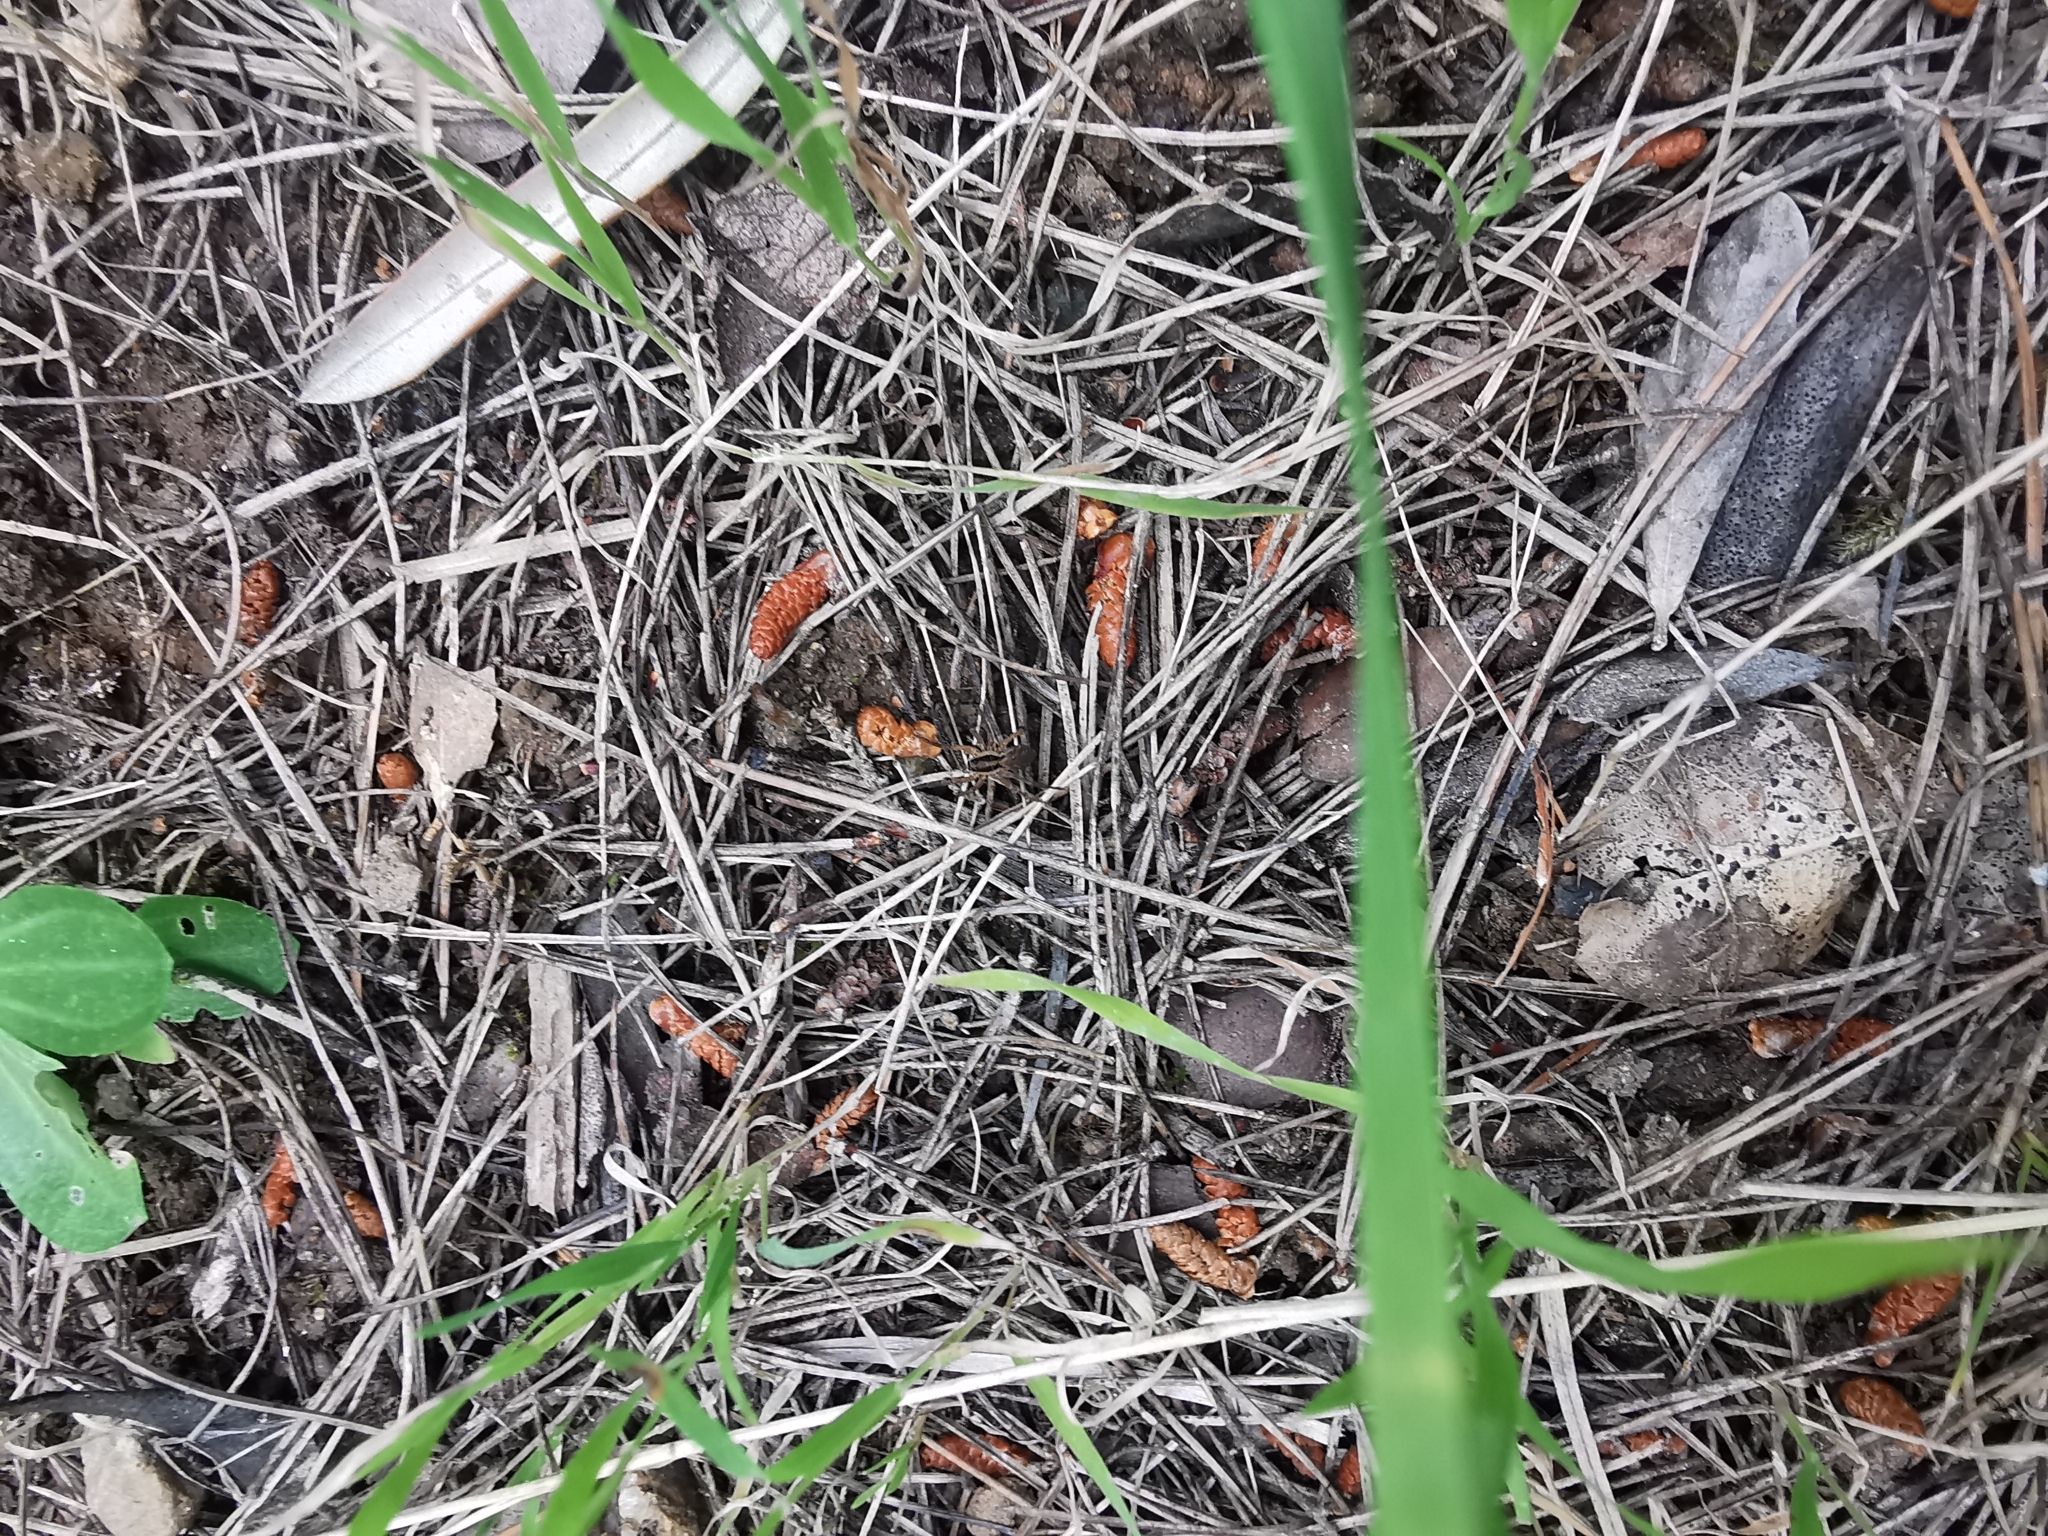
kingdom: Animalia
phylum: Arthropoda
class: Arachnida
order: Araneae
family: Lycosidae
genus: Hogna
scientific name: Hogna radiata
